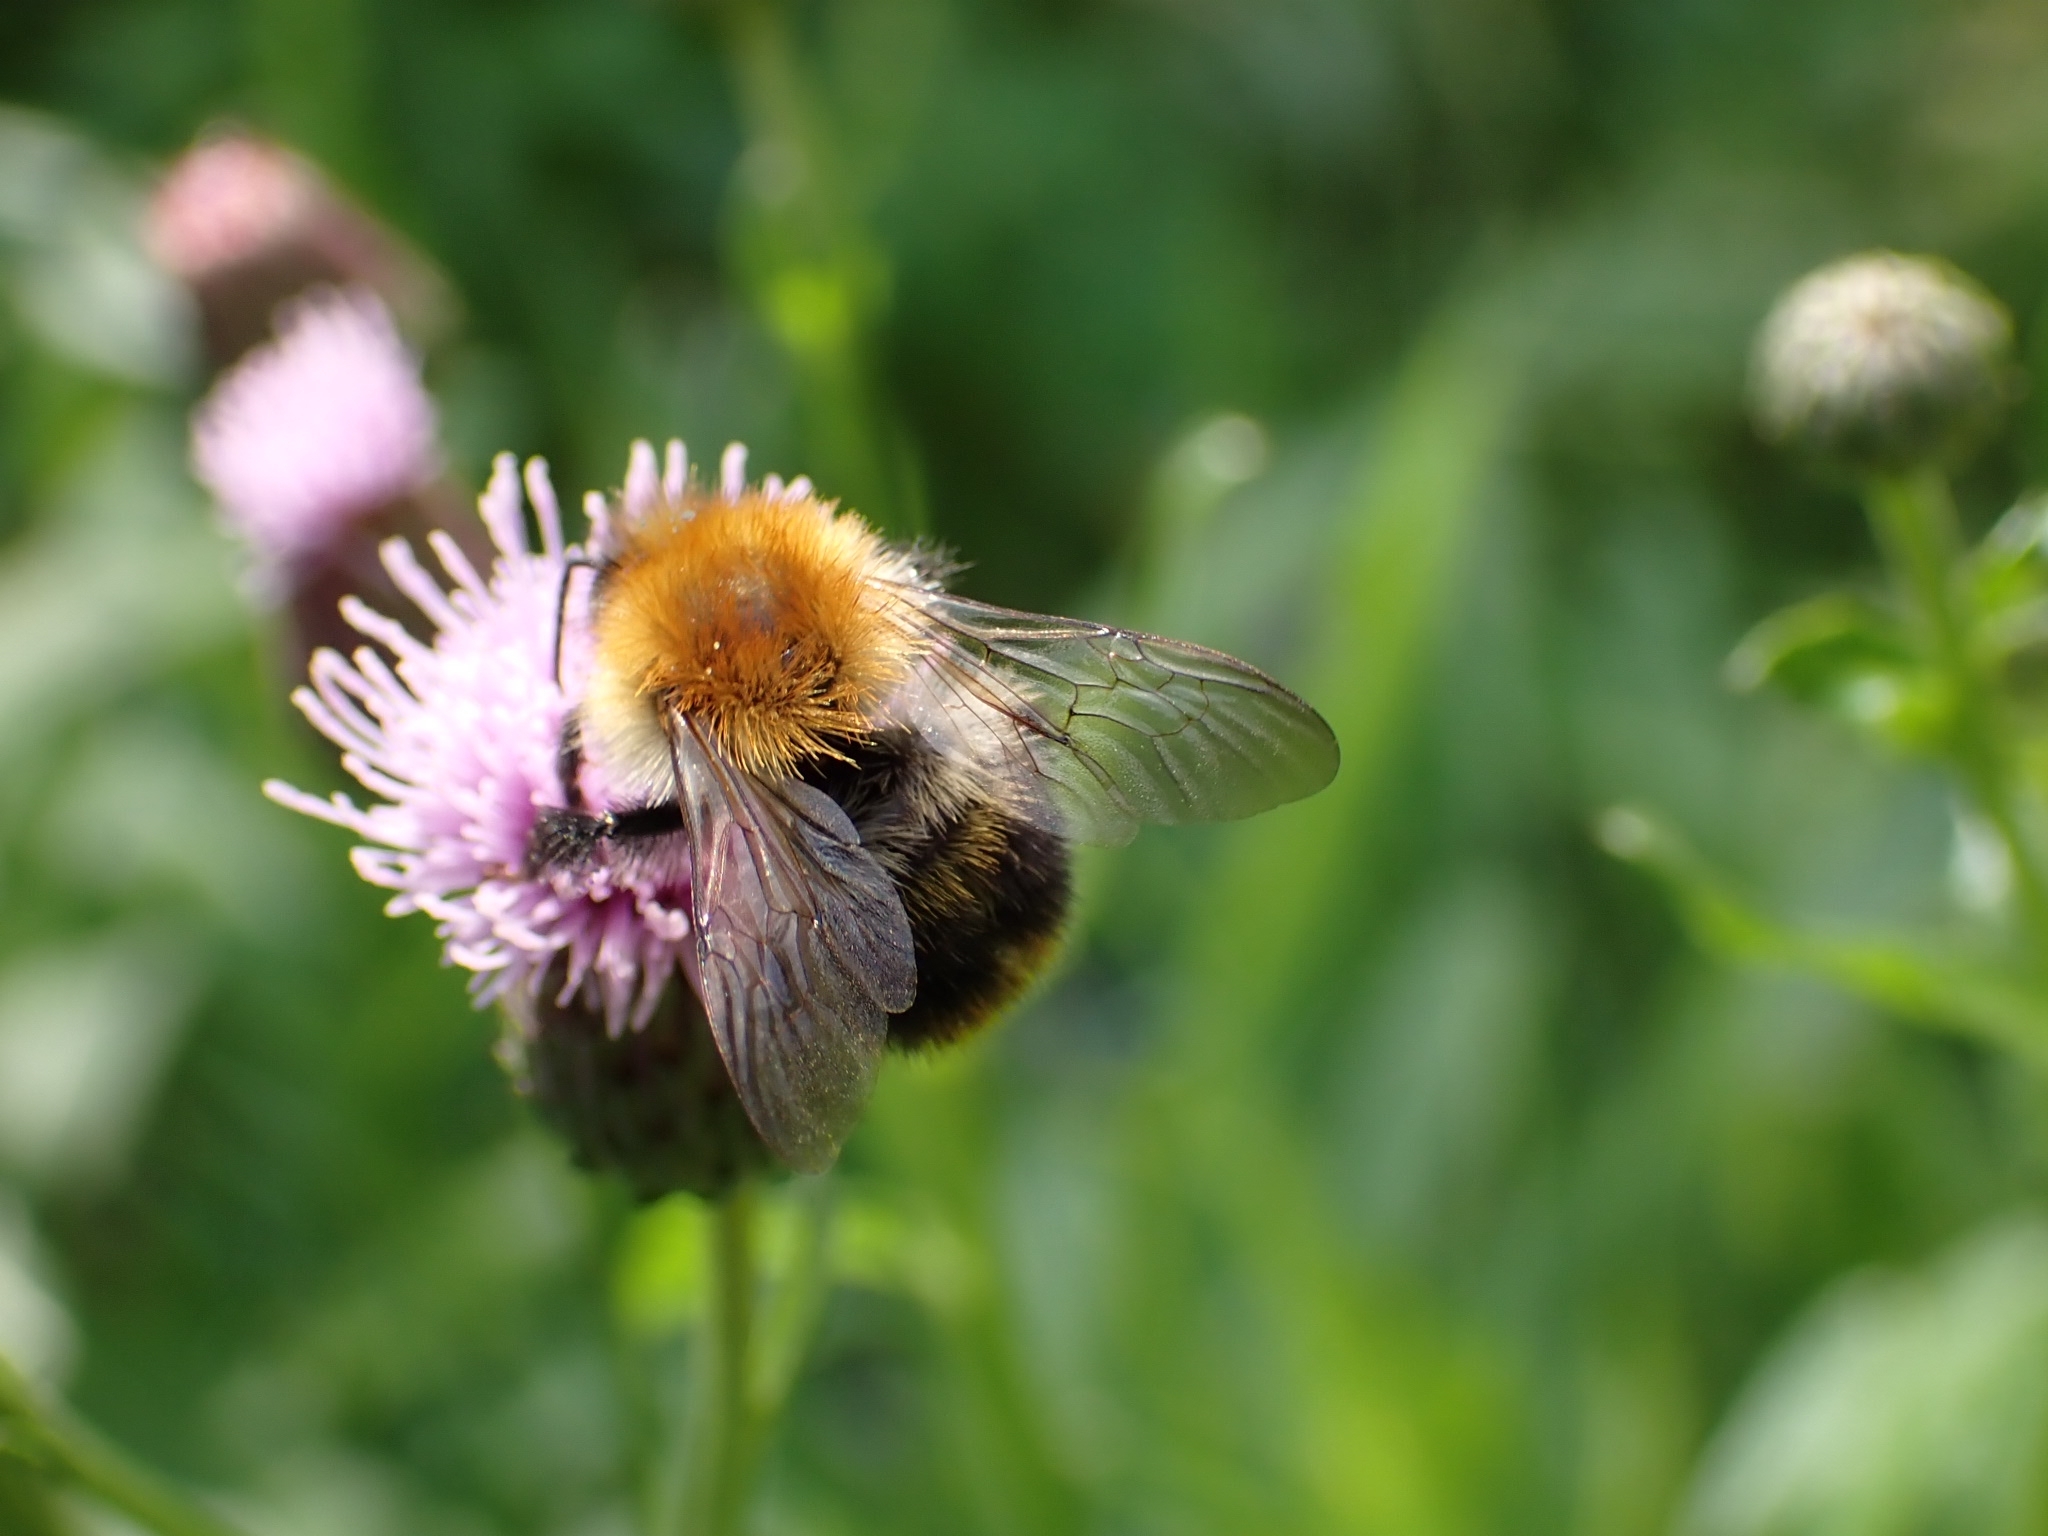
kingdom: Animalia
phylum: Arthropoda
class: Insecta
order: Hymenoptera
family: Apidae
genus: Bombus
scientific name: Bombus pascuorum
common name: Common carder bee
